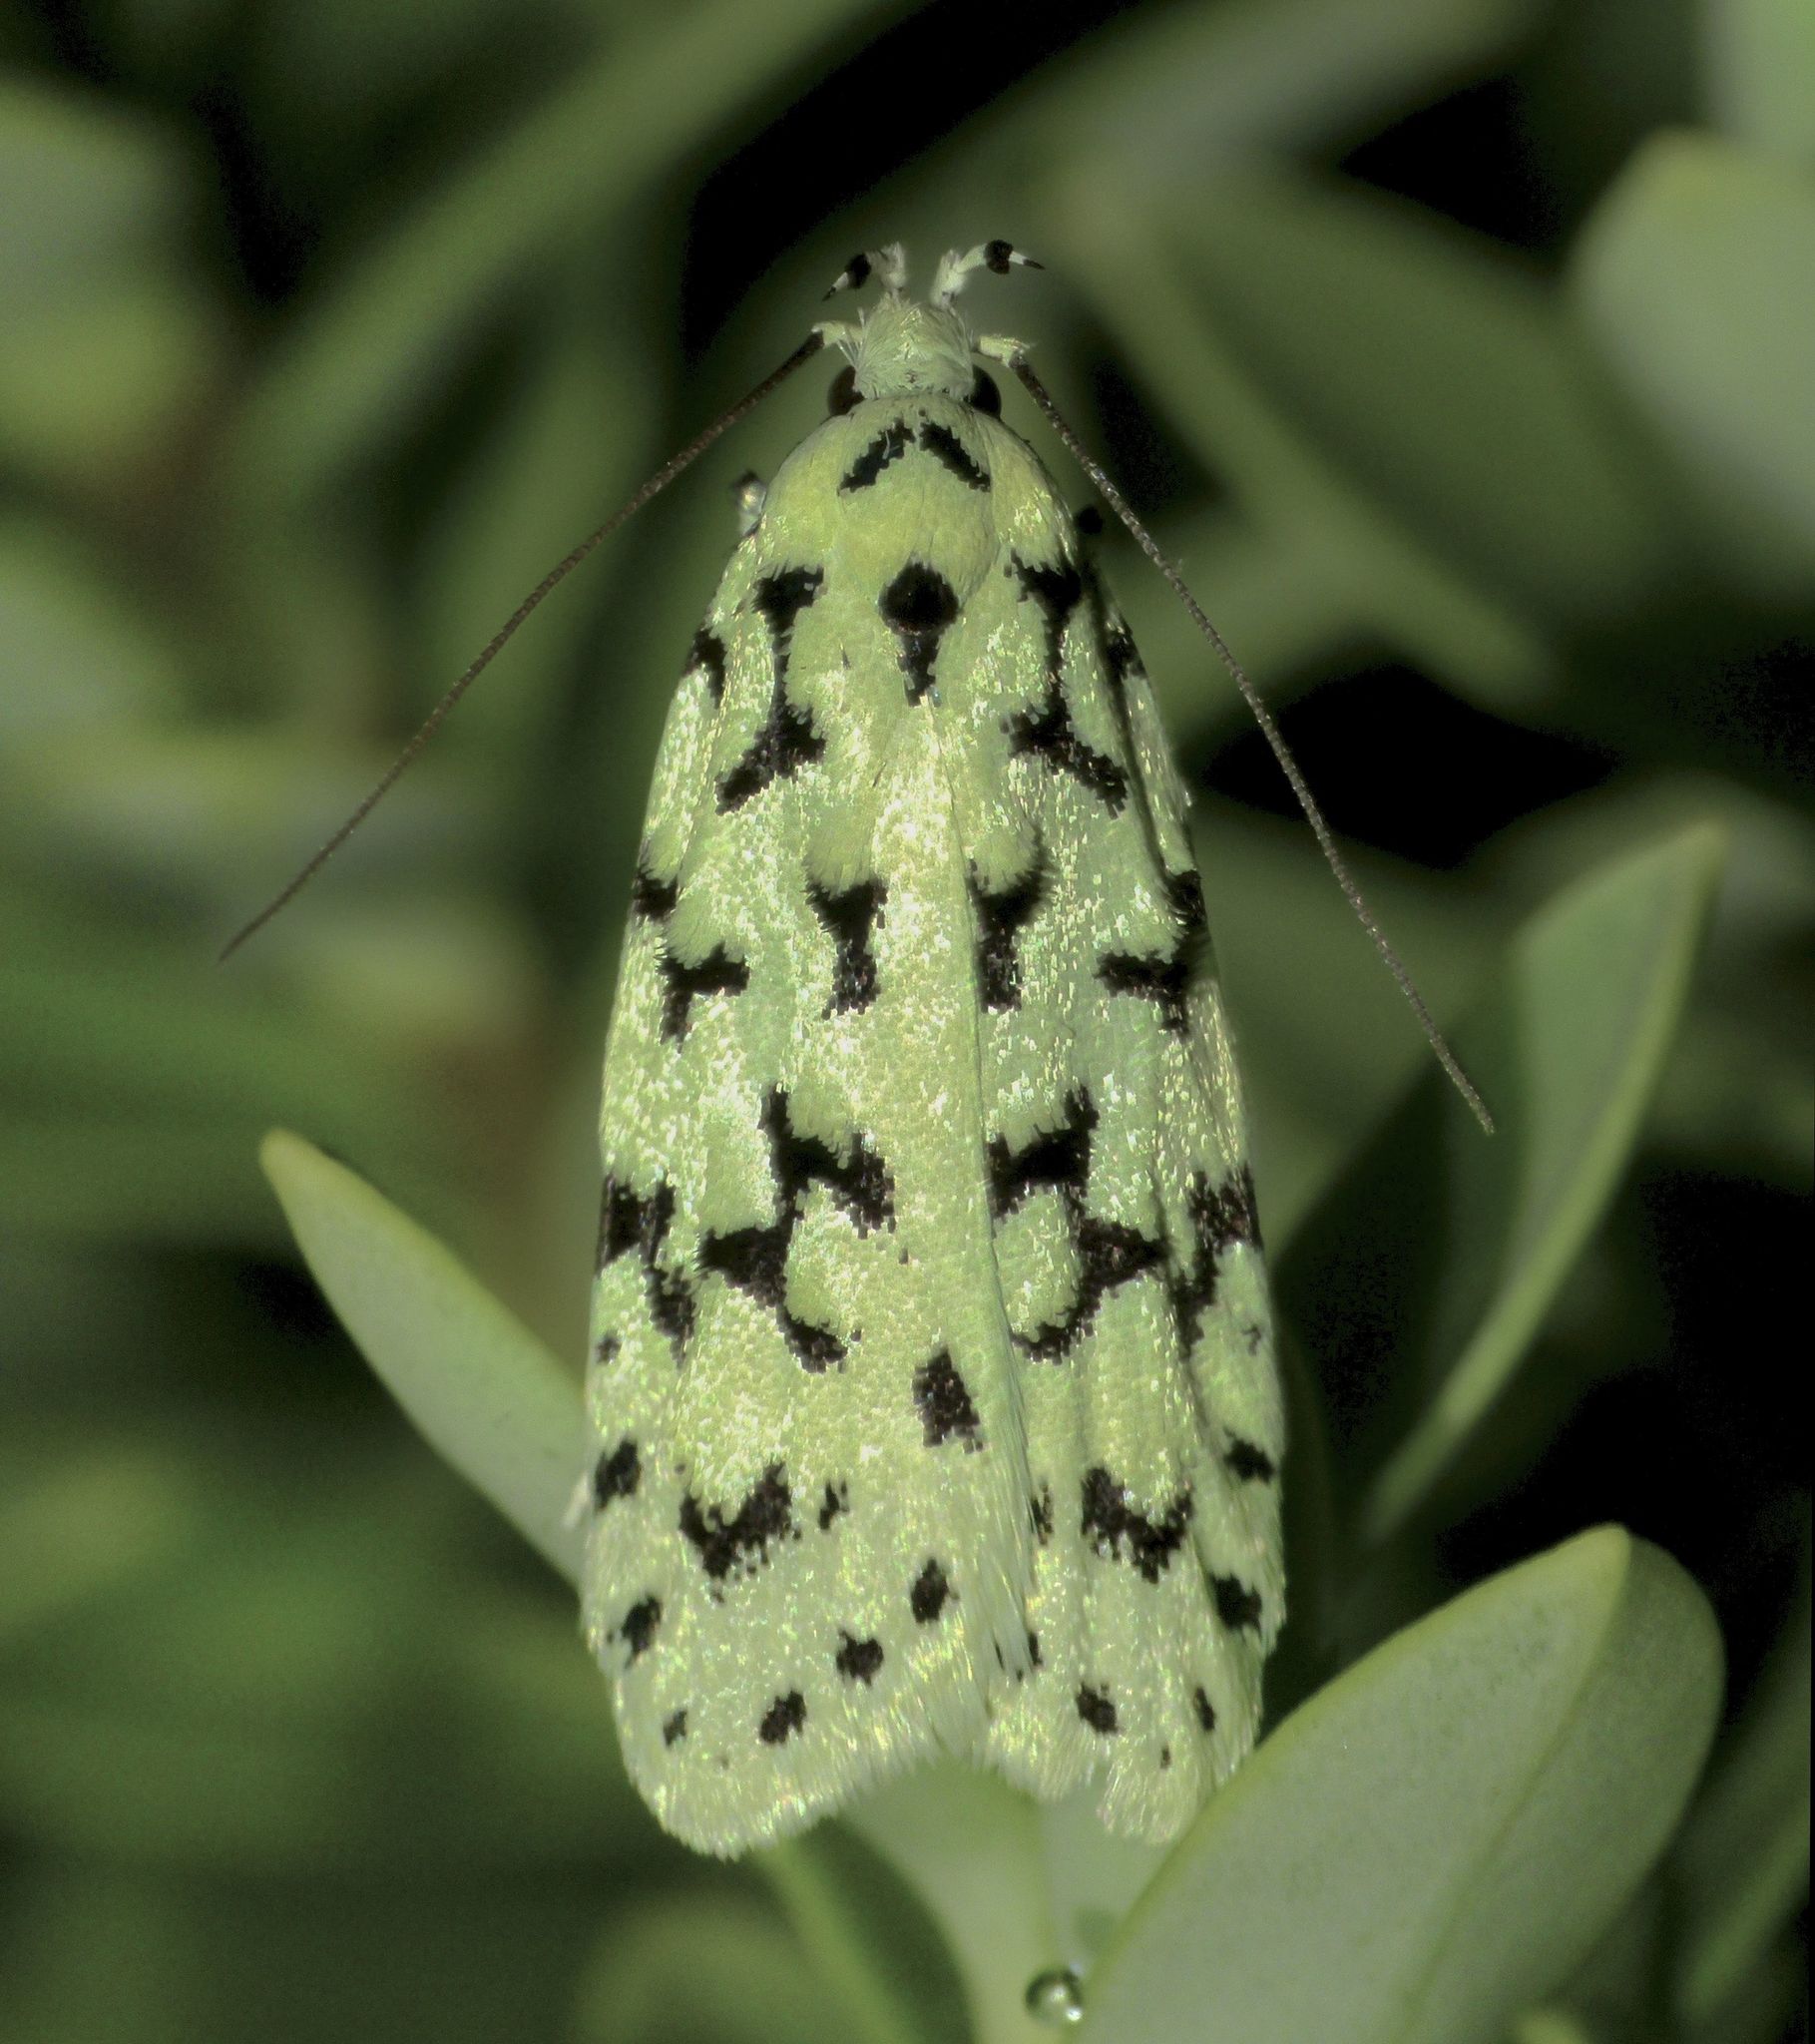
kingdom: Animalia
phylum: Arthropoda
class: Insecta
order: Lepidoptera
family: Oecophoridae
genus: Izatha
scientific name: Izatha huttoni
